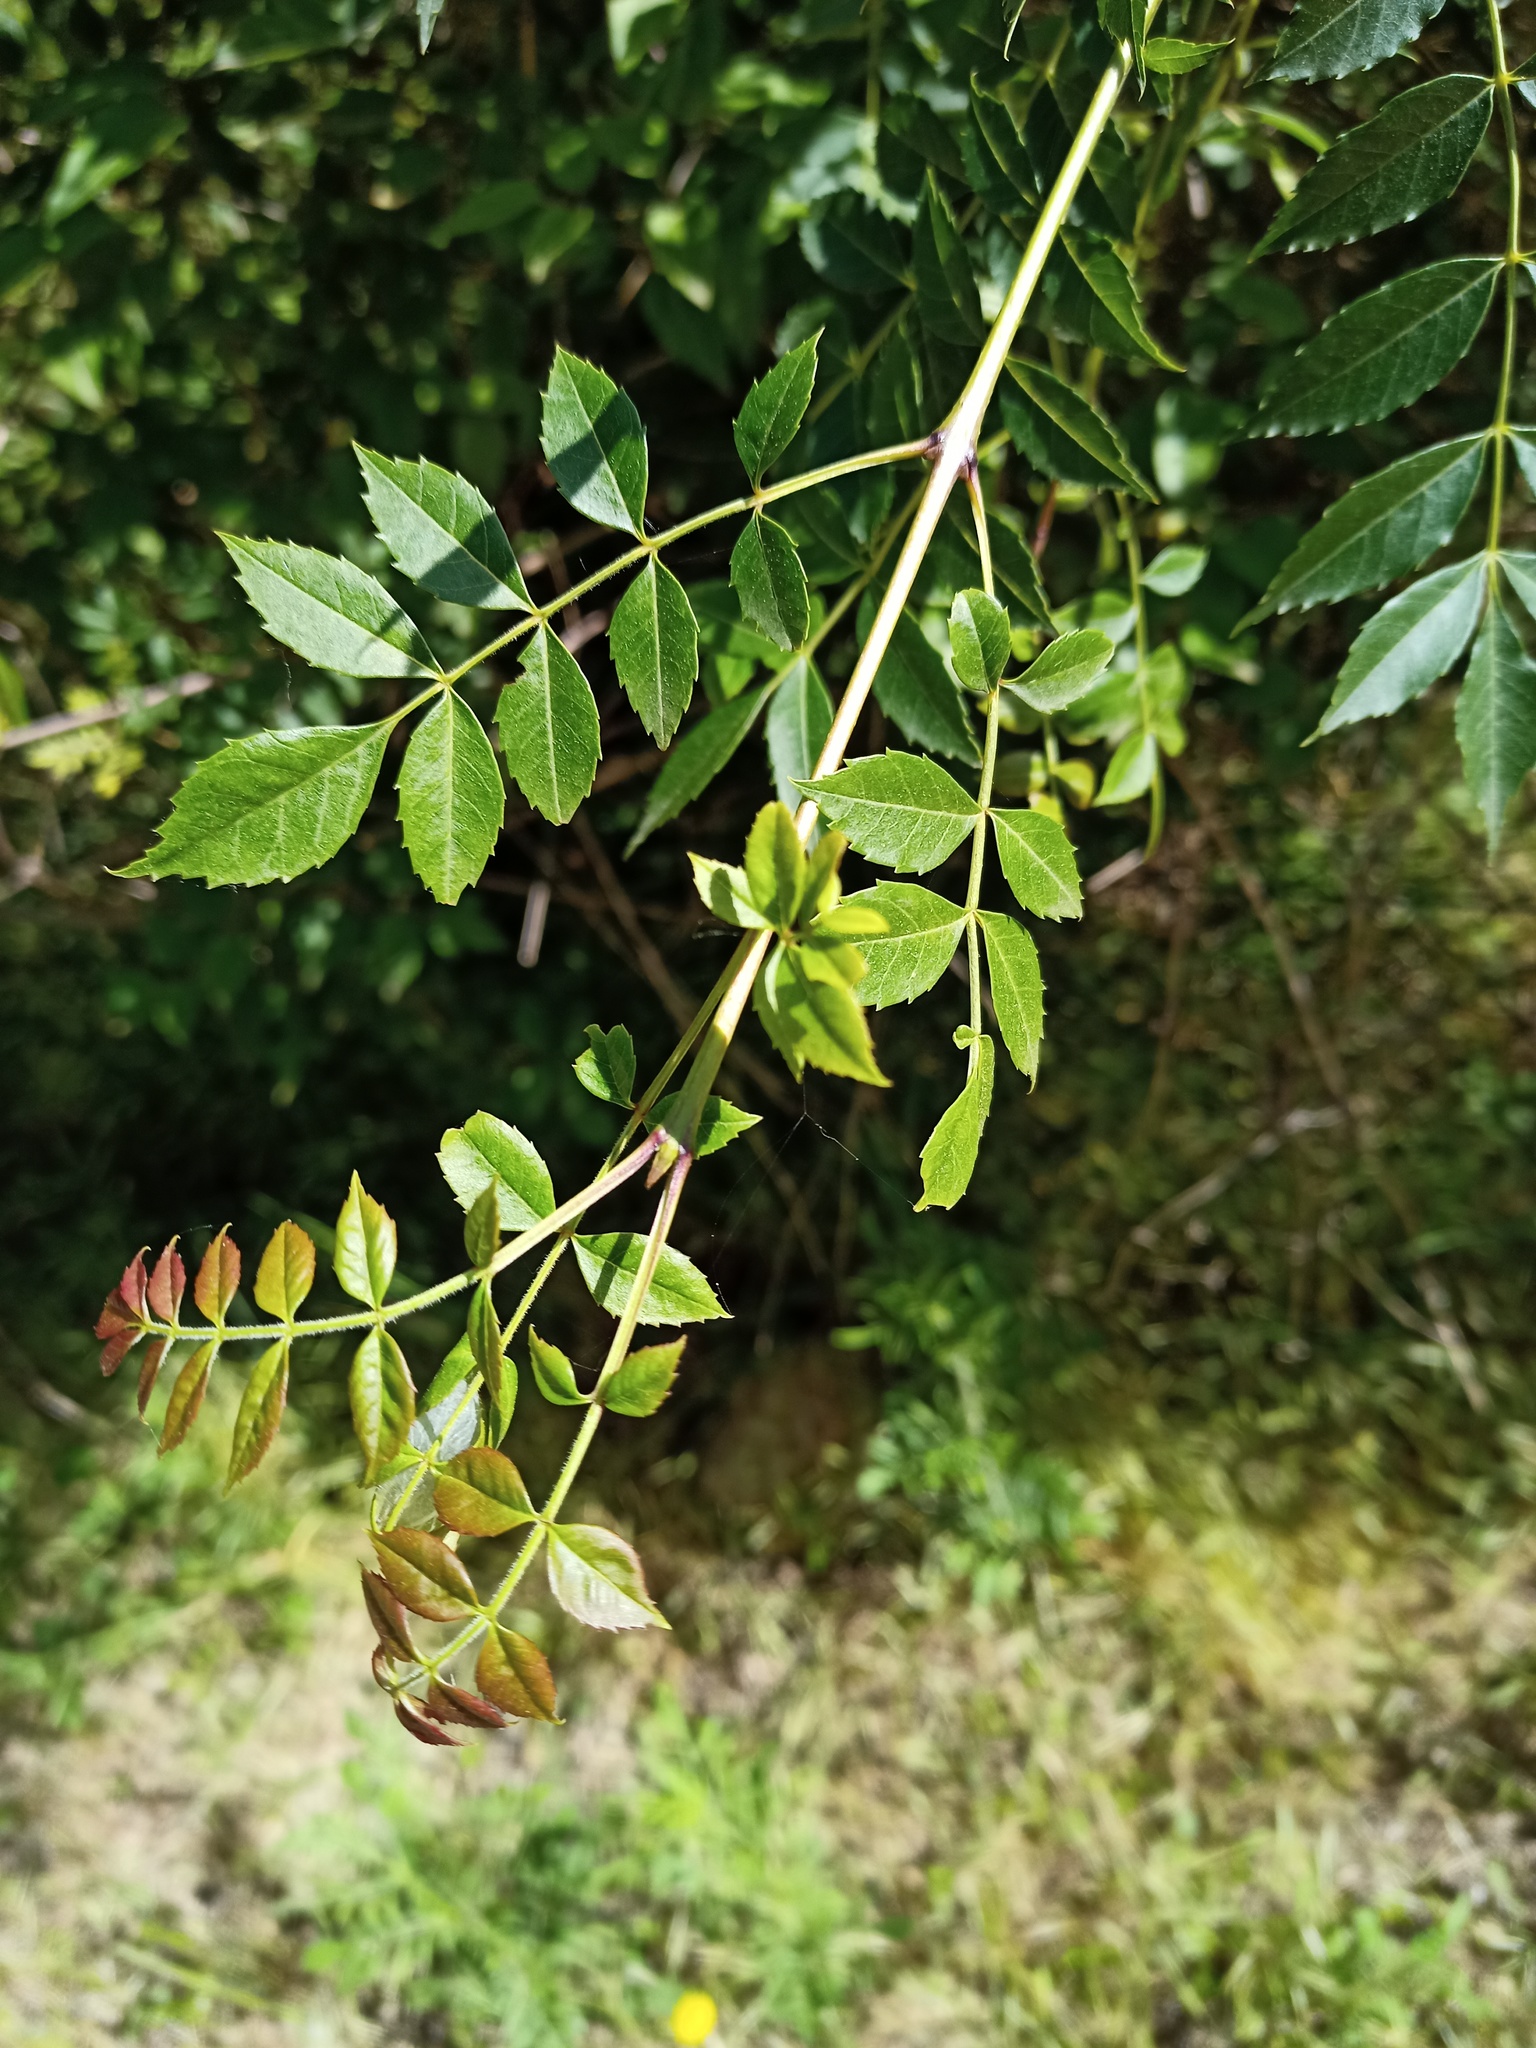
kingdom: Plantae
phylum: Tracheophyta
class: Magnoliopsida
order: Lamiales
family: Oleaceae
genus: Fraxinus
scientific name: Fraxinus angustifolia
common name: Narrow-leafed ash
